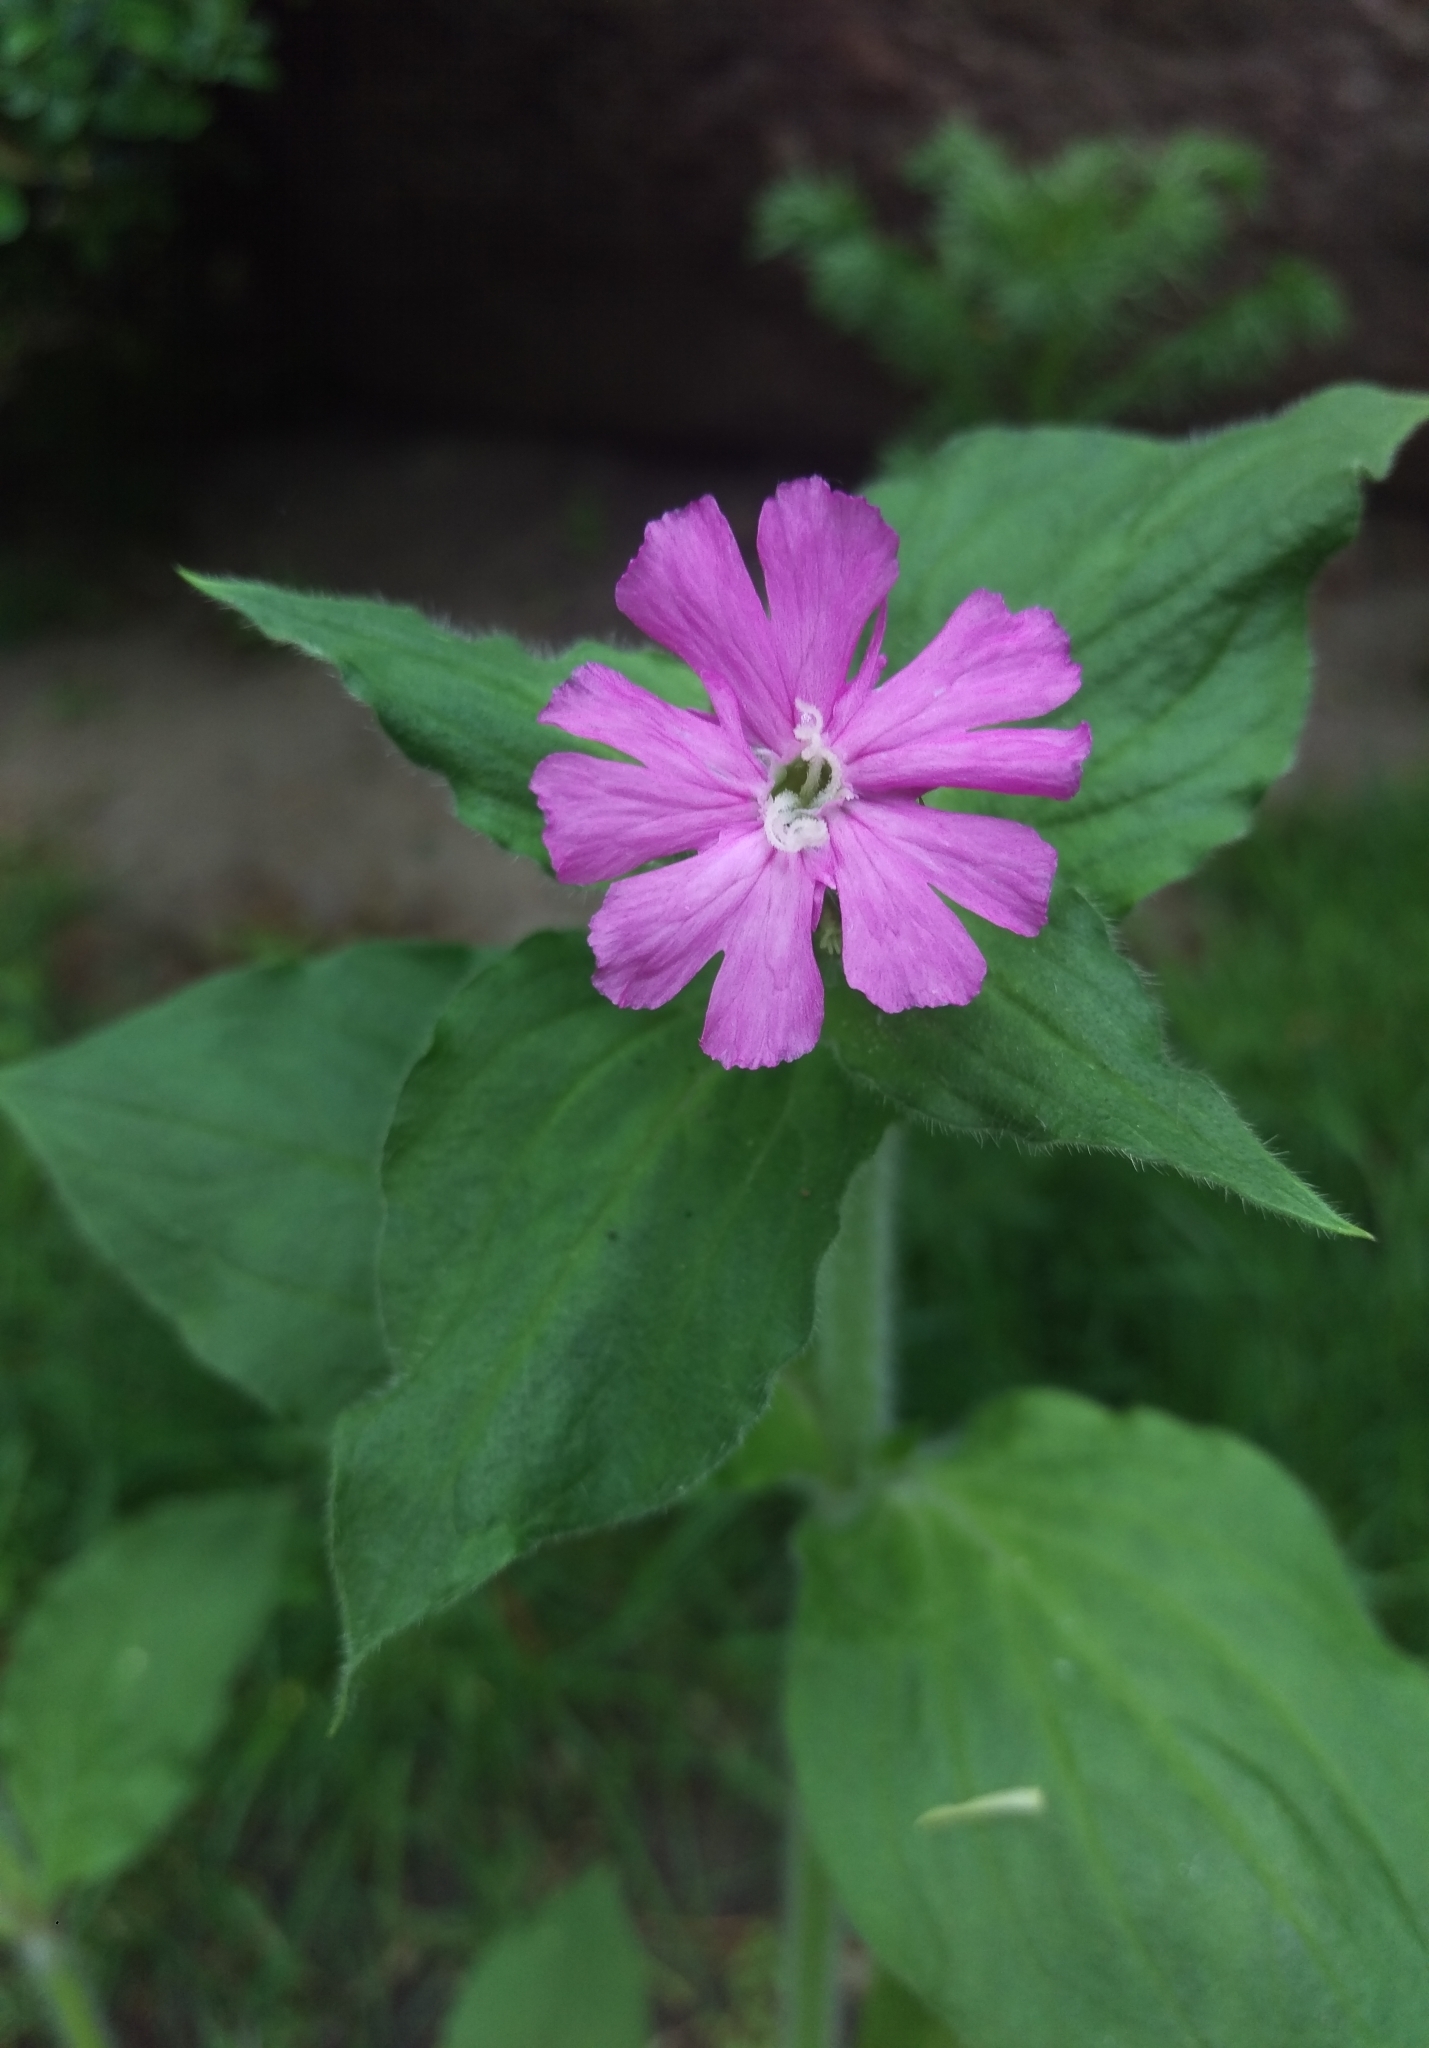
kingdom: Plantae
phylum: Tracheophyta
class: Magnoliopsida
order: Caryophyllales
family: Caryophyllaceae
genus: Silene
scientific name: Silene dioica
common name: Red campion
